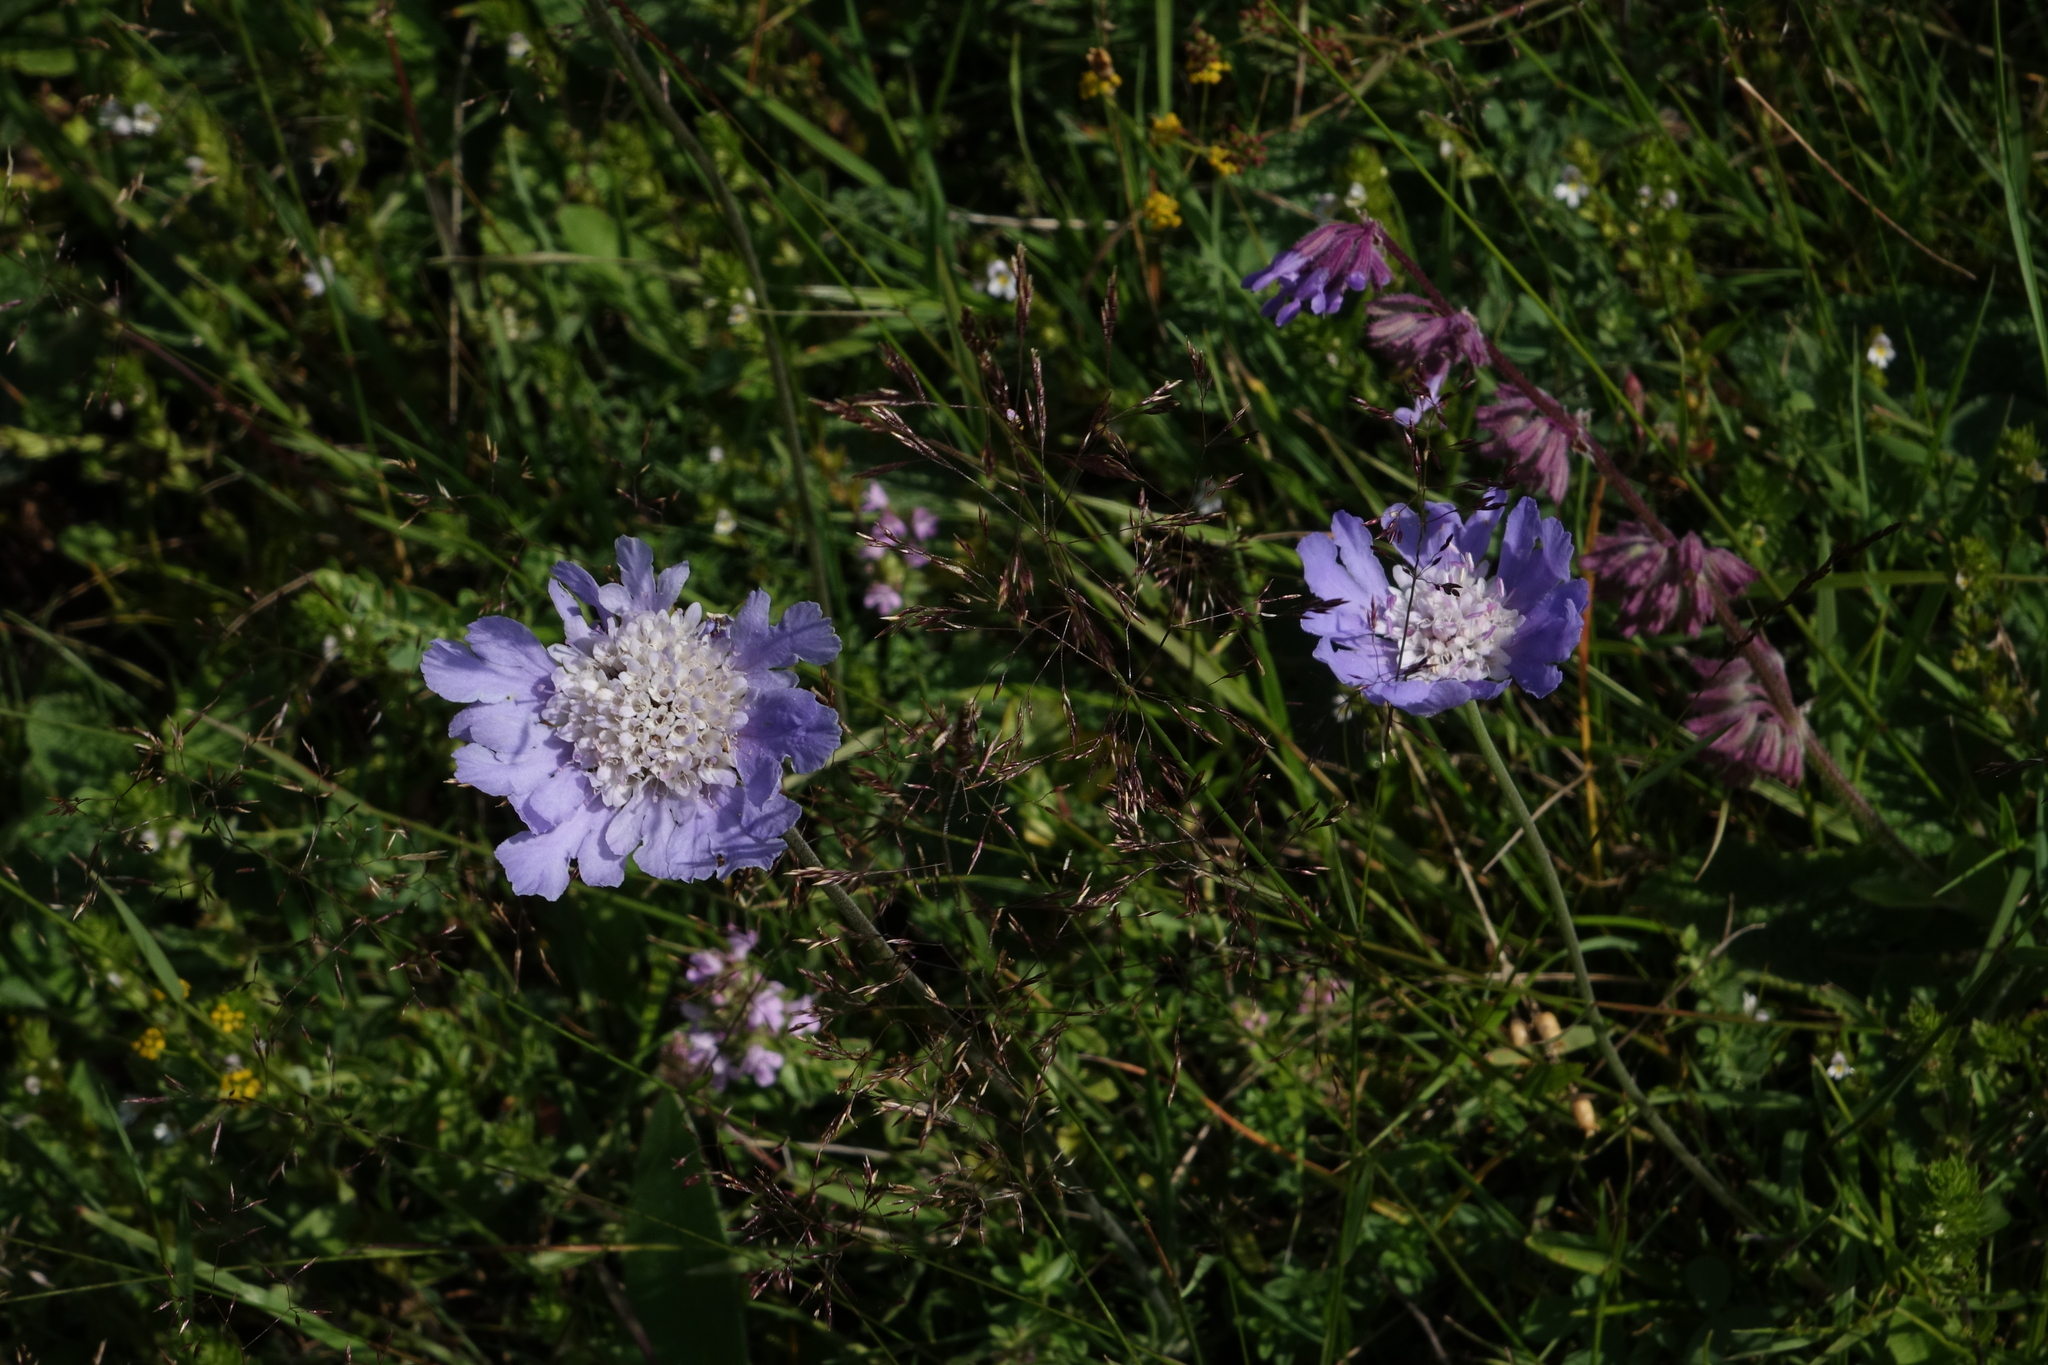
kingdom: Plantae
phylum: Tracheophyta
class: Magnoliopsida
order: Dipsacales
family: Caprifoliaceae
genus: Lomelosia
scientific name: Lomelosia caucasica
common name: Pincushion-flower
